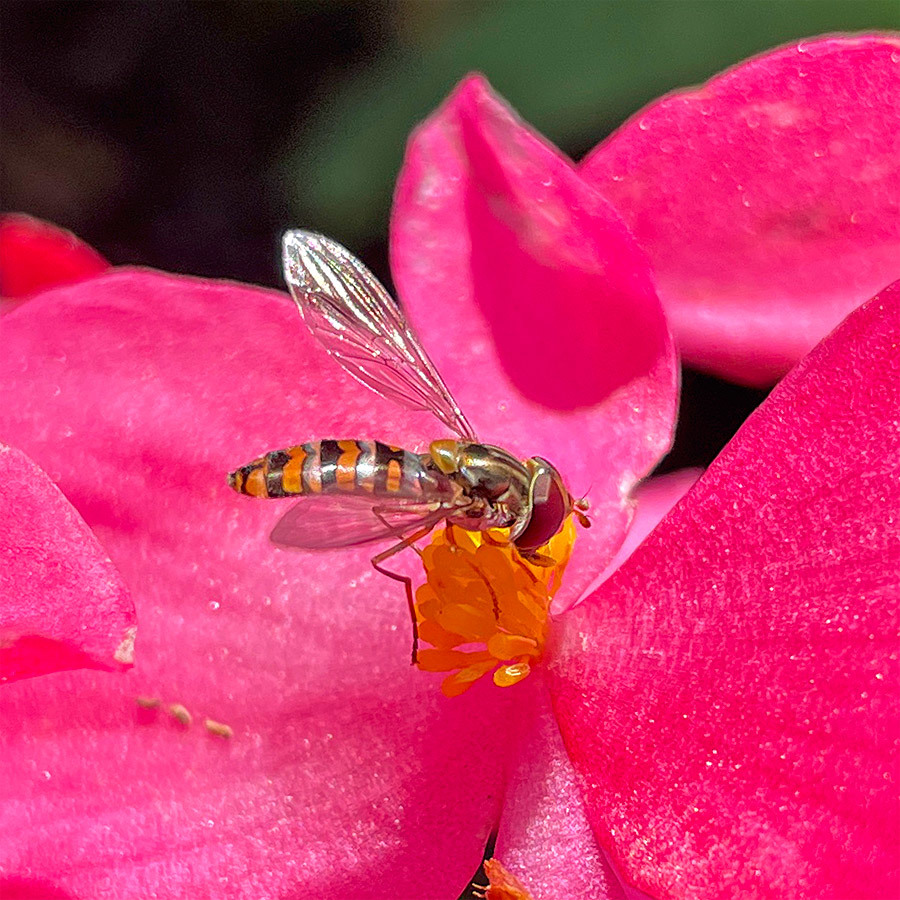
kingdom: Animalia
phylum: Arthropoda
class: Insecta
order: Diptera
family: Syrphidae
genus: Episyrphus
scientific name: Episyrphus balteatus
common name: Marmalade hoverfly
